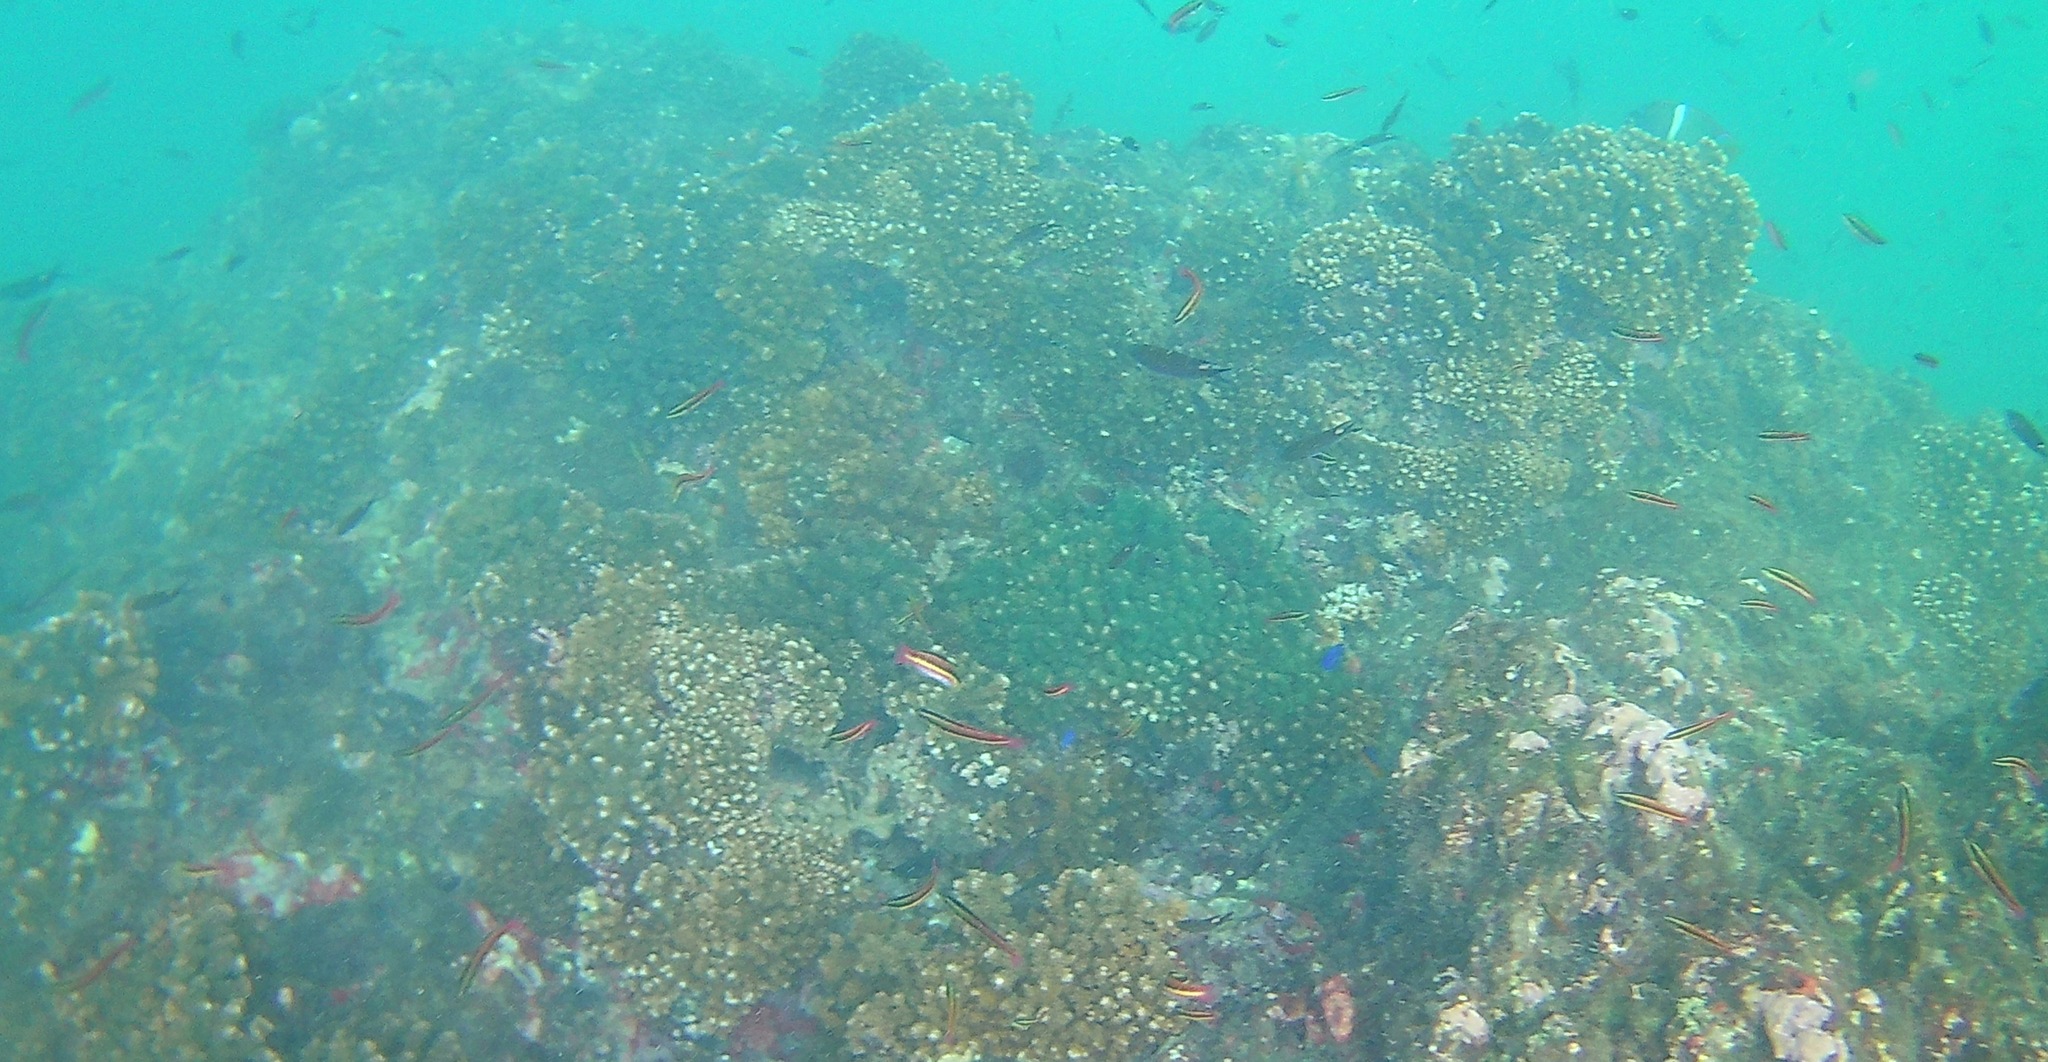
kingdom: Animalia
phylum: Chordata
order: Perciformes
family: Labridae
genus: Thalassoma
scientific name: Thalassoma lucasanum
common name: Cortez rainbow wrasse
